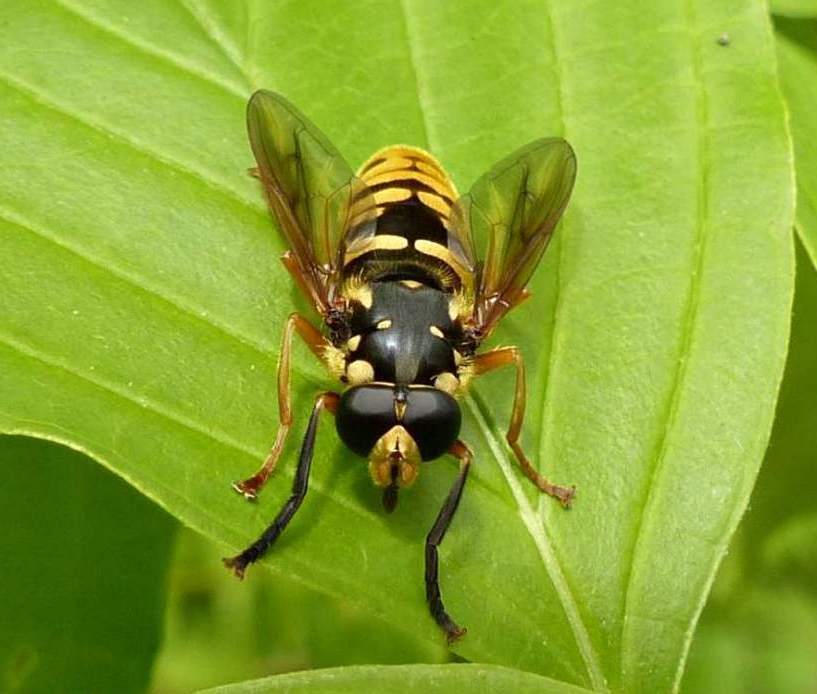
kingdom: Animalia
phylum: Arthropoda
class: Insecta
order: Diptera
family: Syrphidae
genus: Temnostoma
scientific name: Temnostoma alternans
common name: Wasp-like falsehorn
